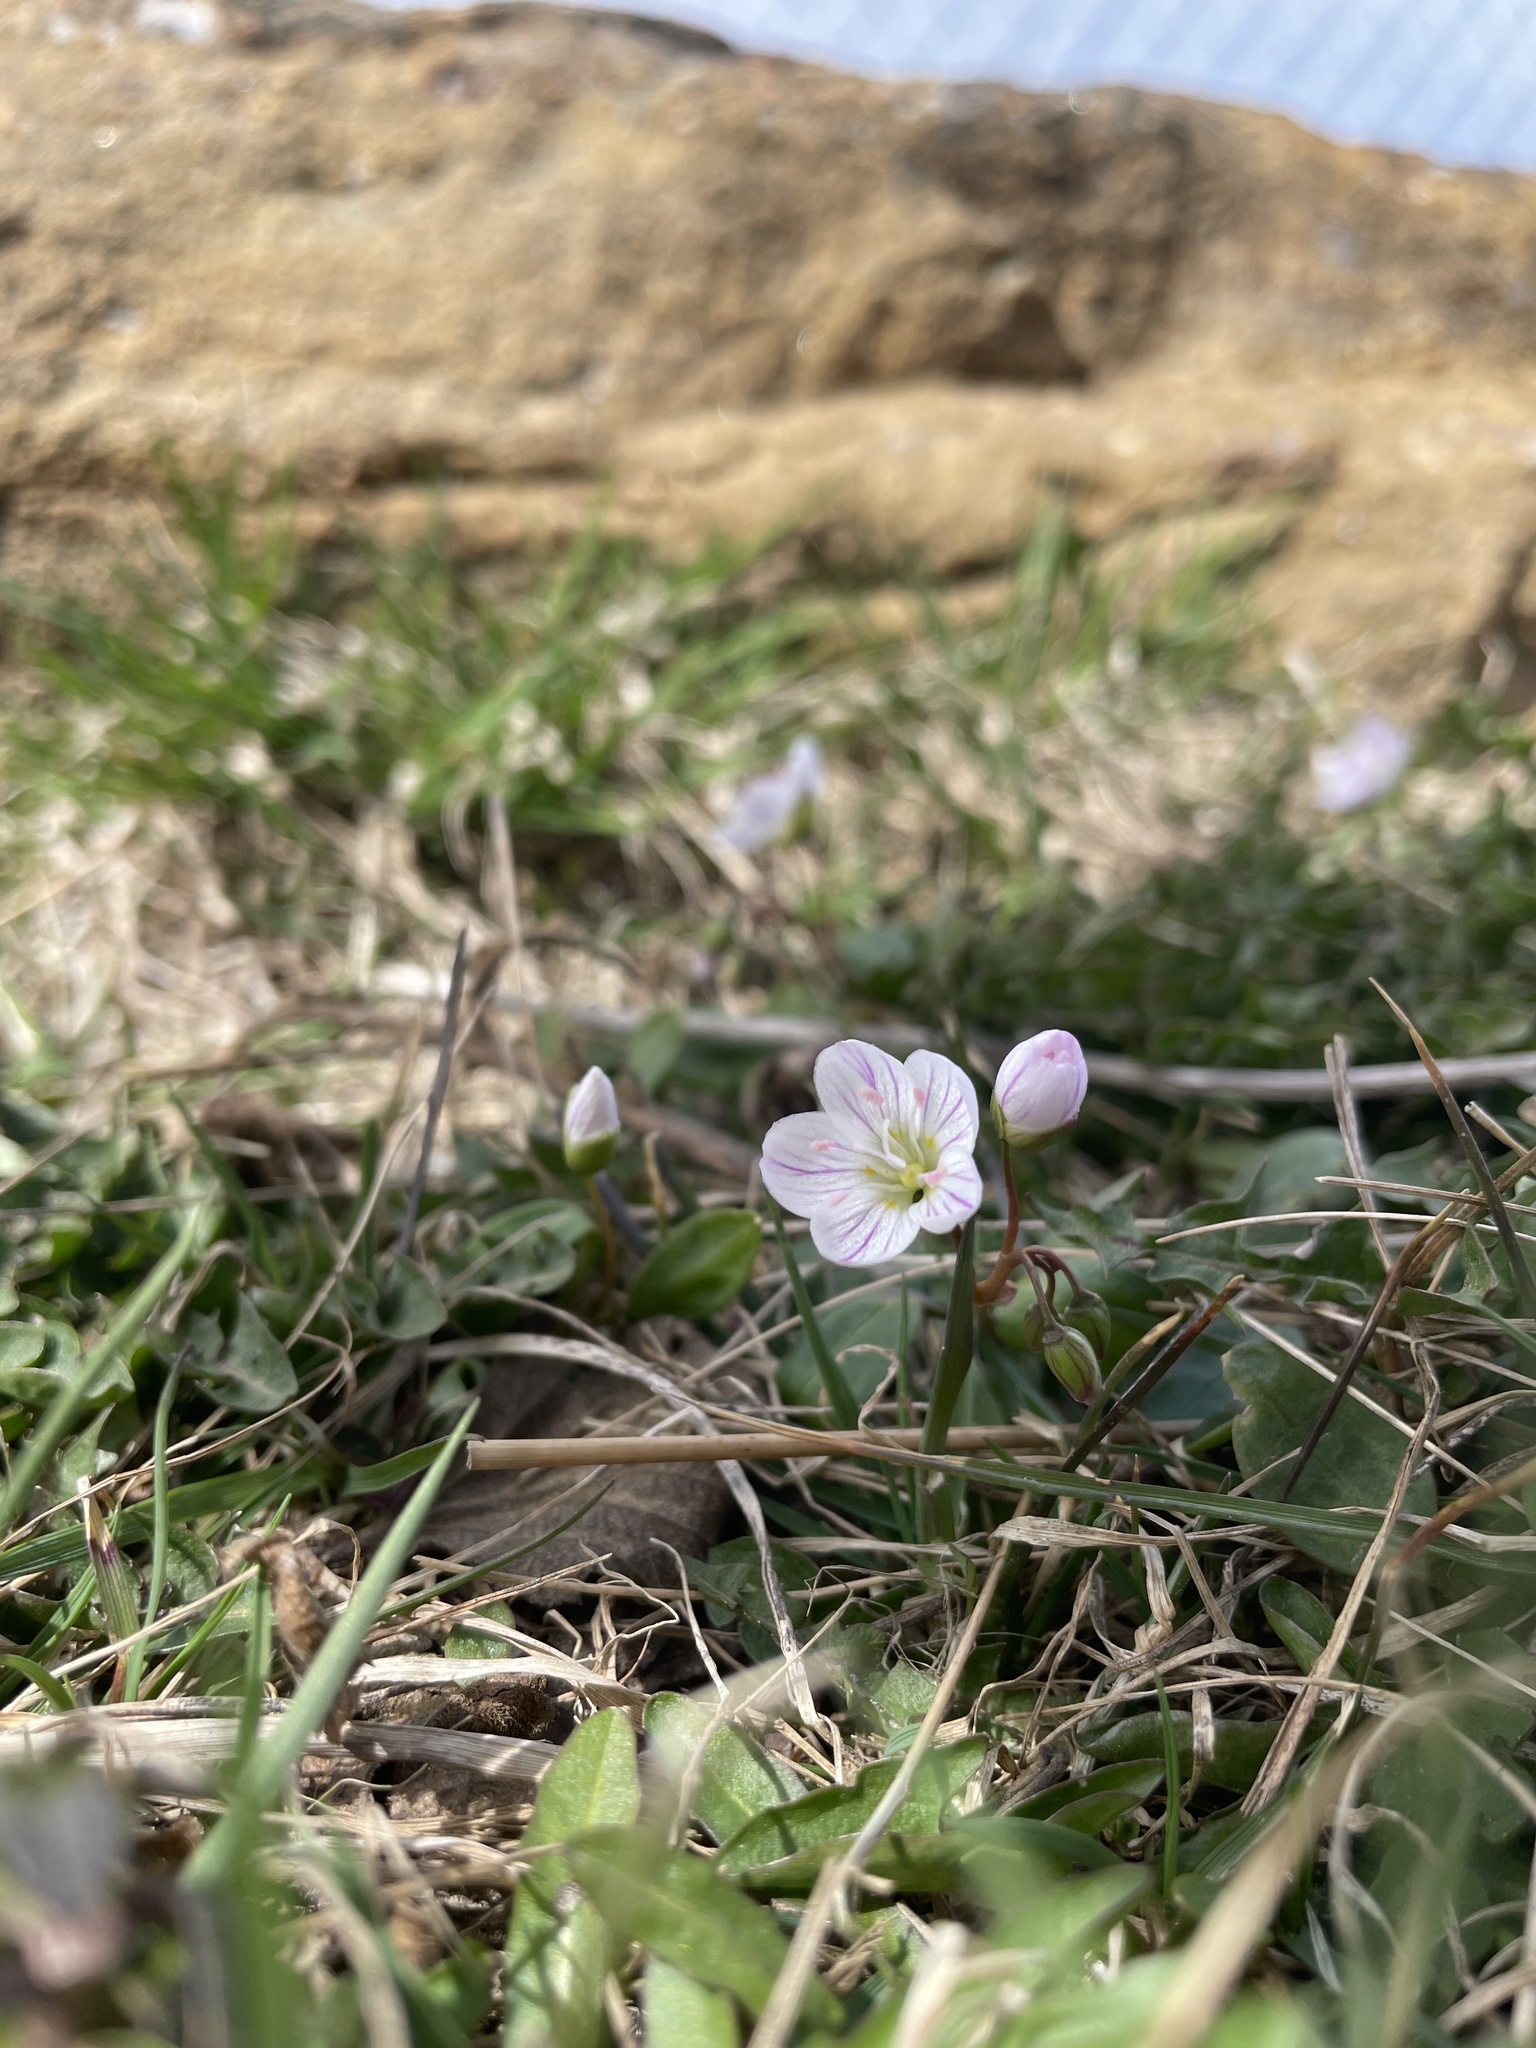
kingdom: Plantae
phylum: Tracheophyta
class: Magnoliopsida
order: Caryophyllales
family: Montiaceae
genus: Claytonia
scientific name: Claytonia caroliniana
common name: Carolina spring beauty
